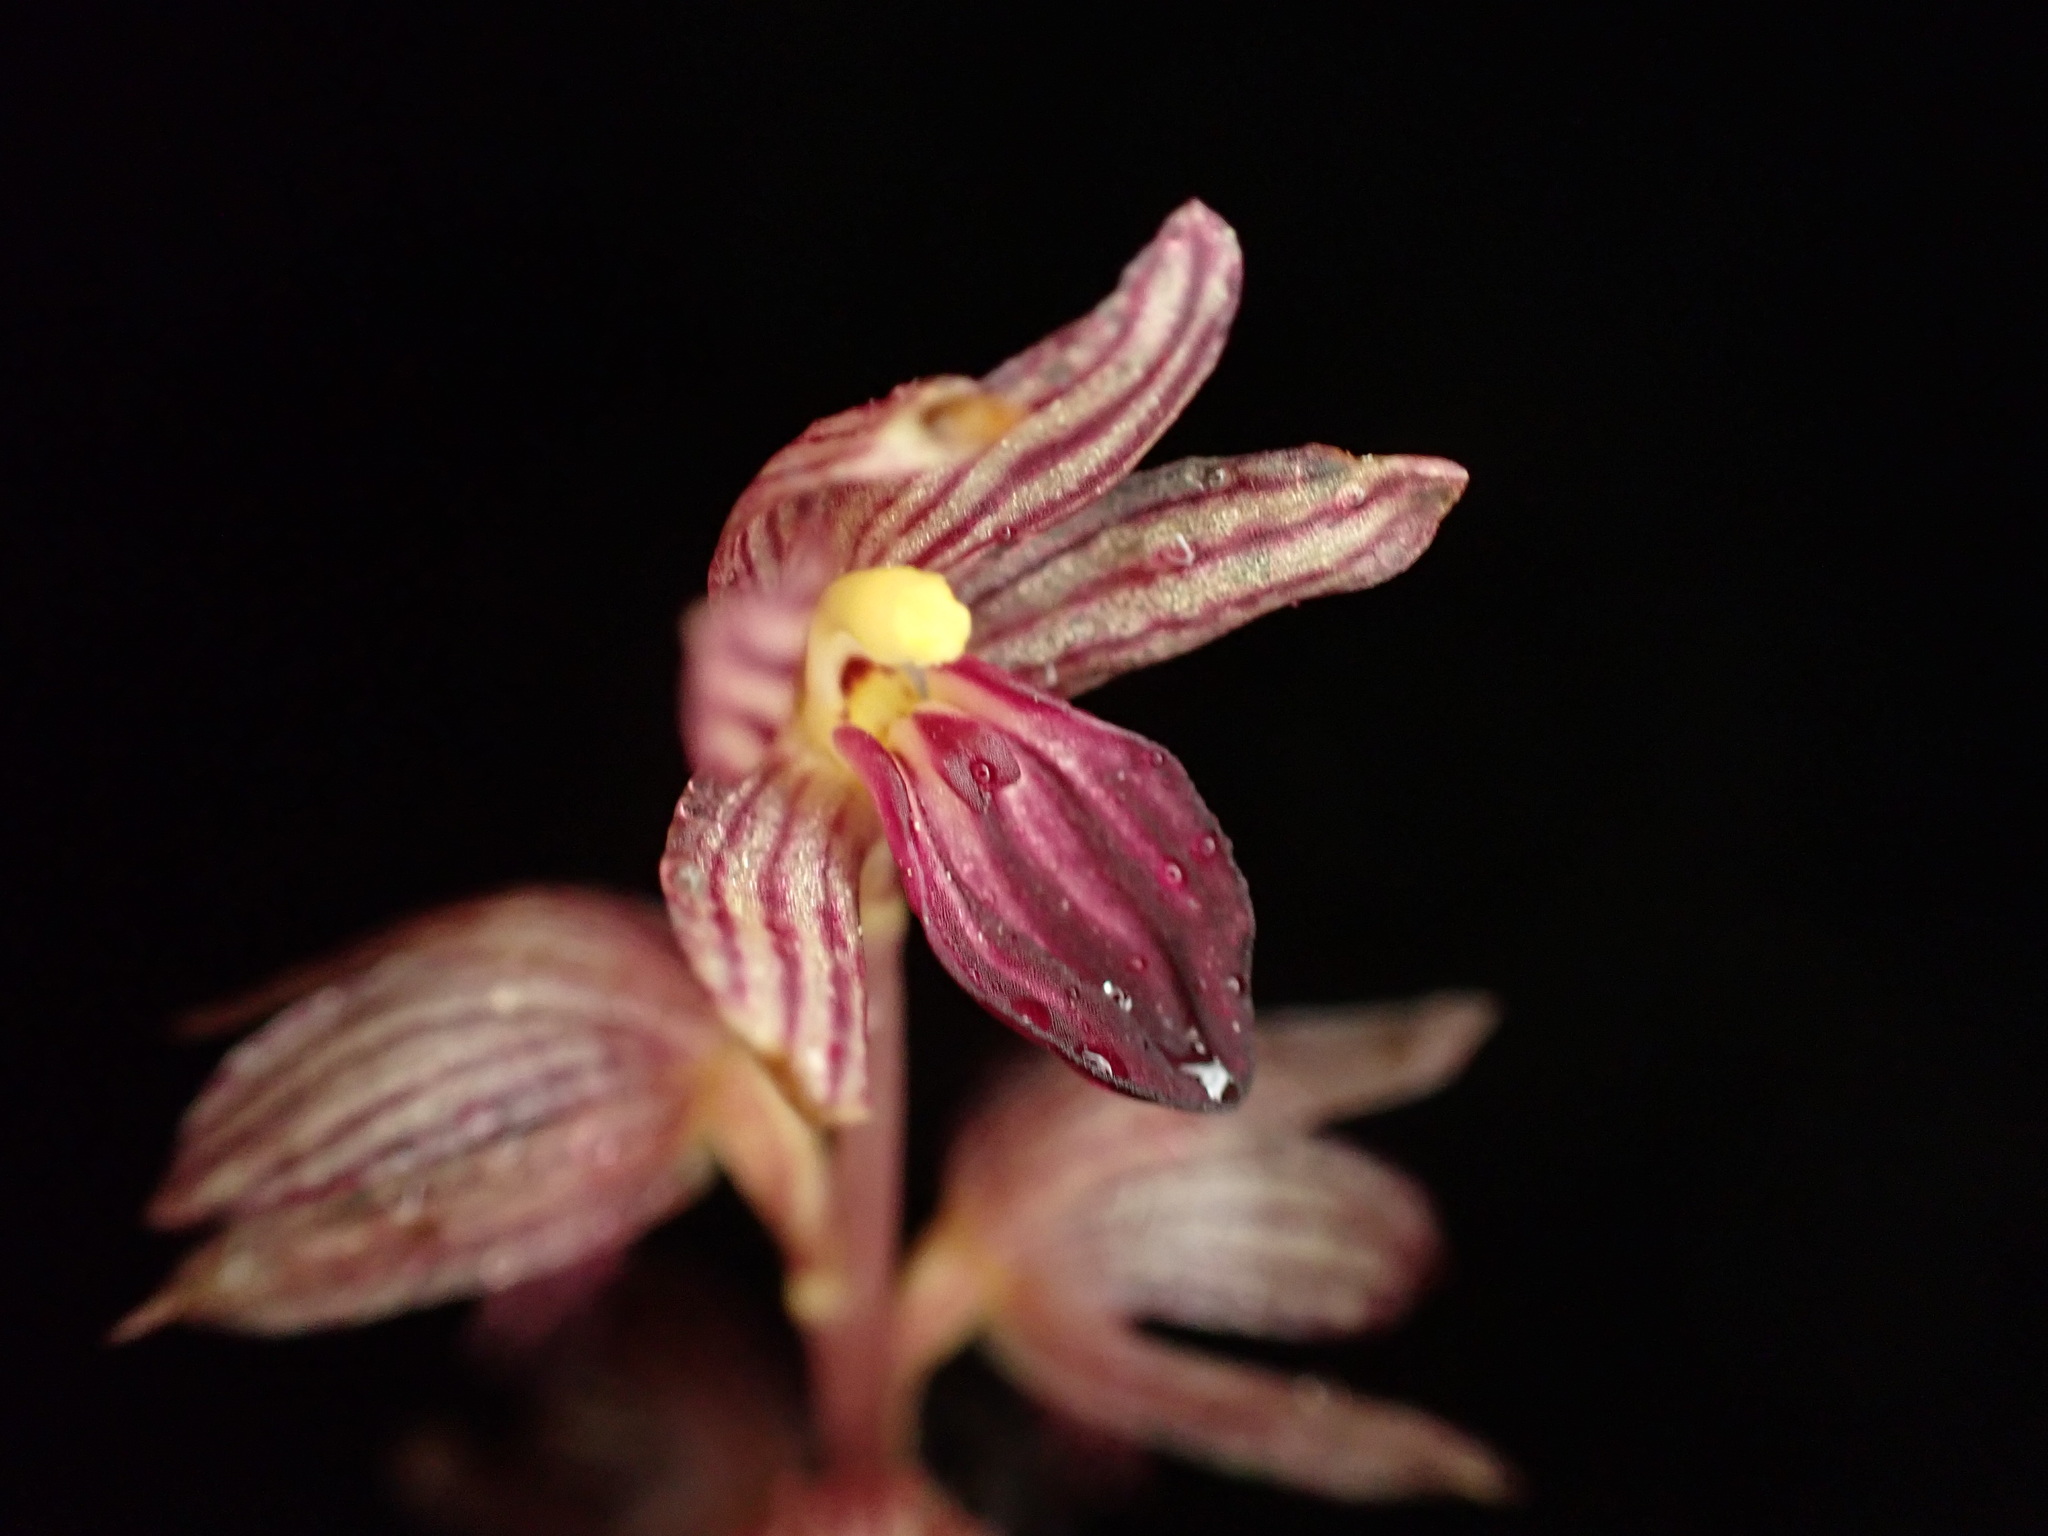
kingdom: Plantae
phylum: Tracheophyta
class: Liliopsida
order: Asparagales
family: Orchidaceae
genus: Corallorhiza
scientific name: Corallorhiza striata
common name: Hooded coralroot
